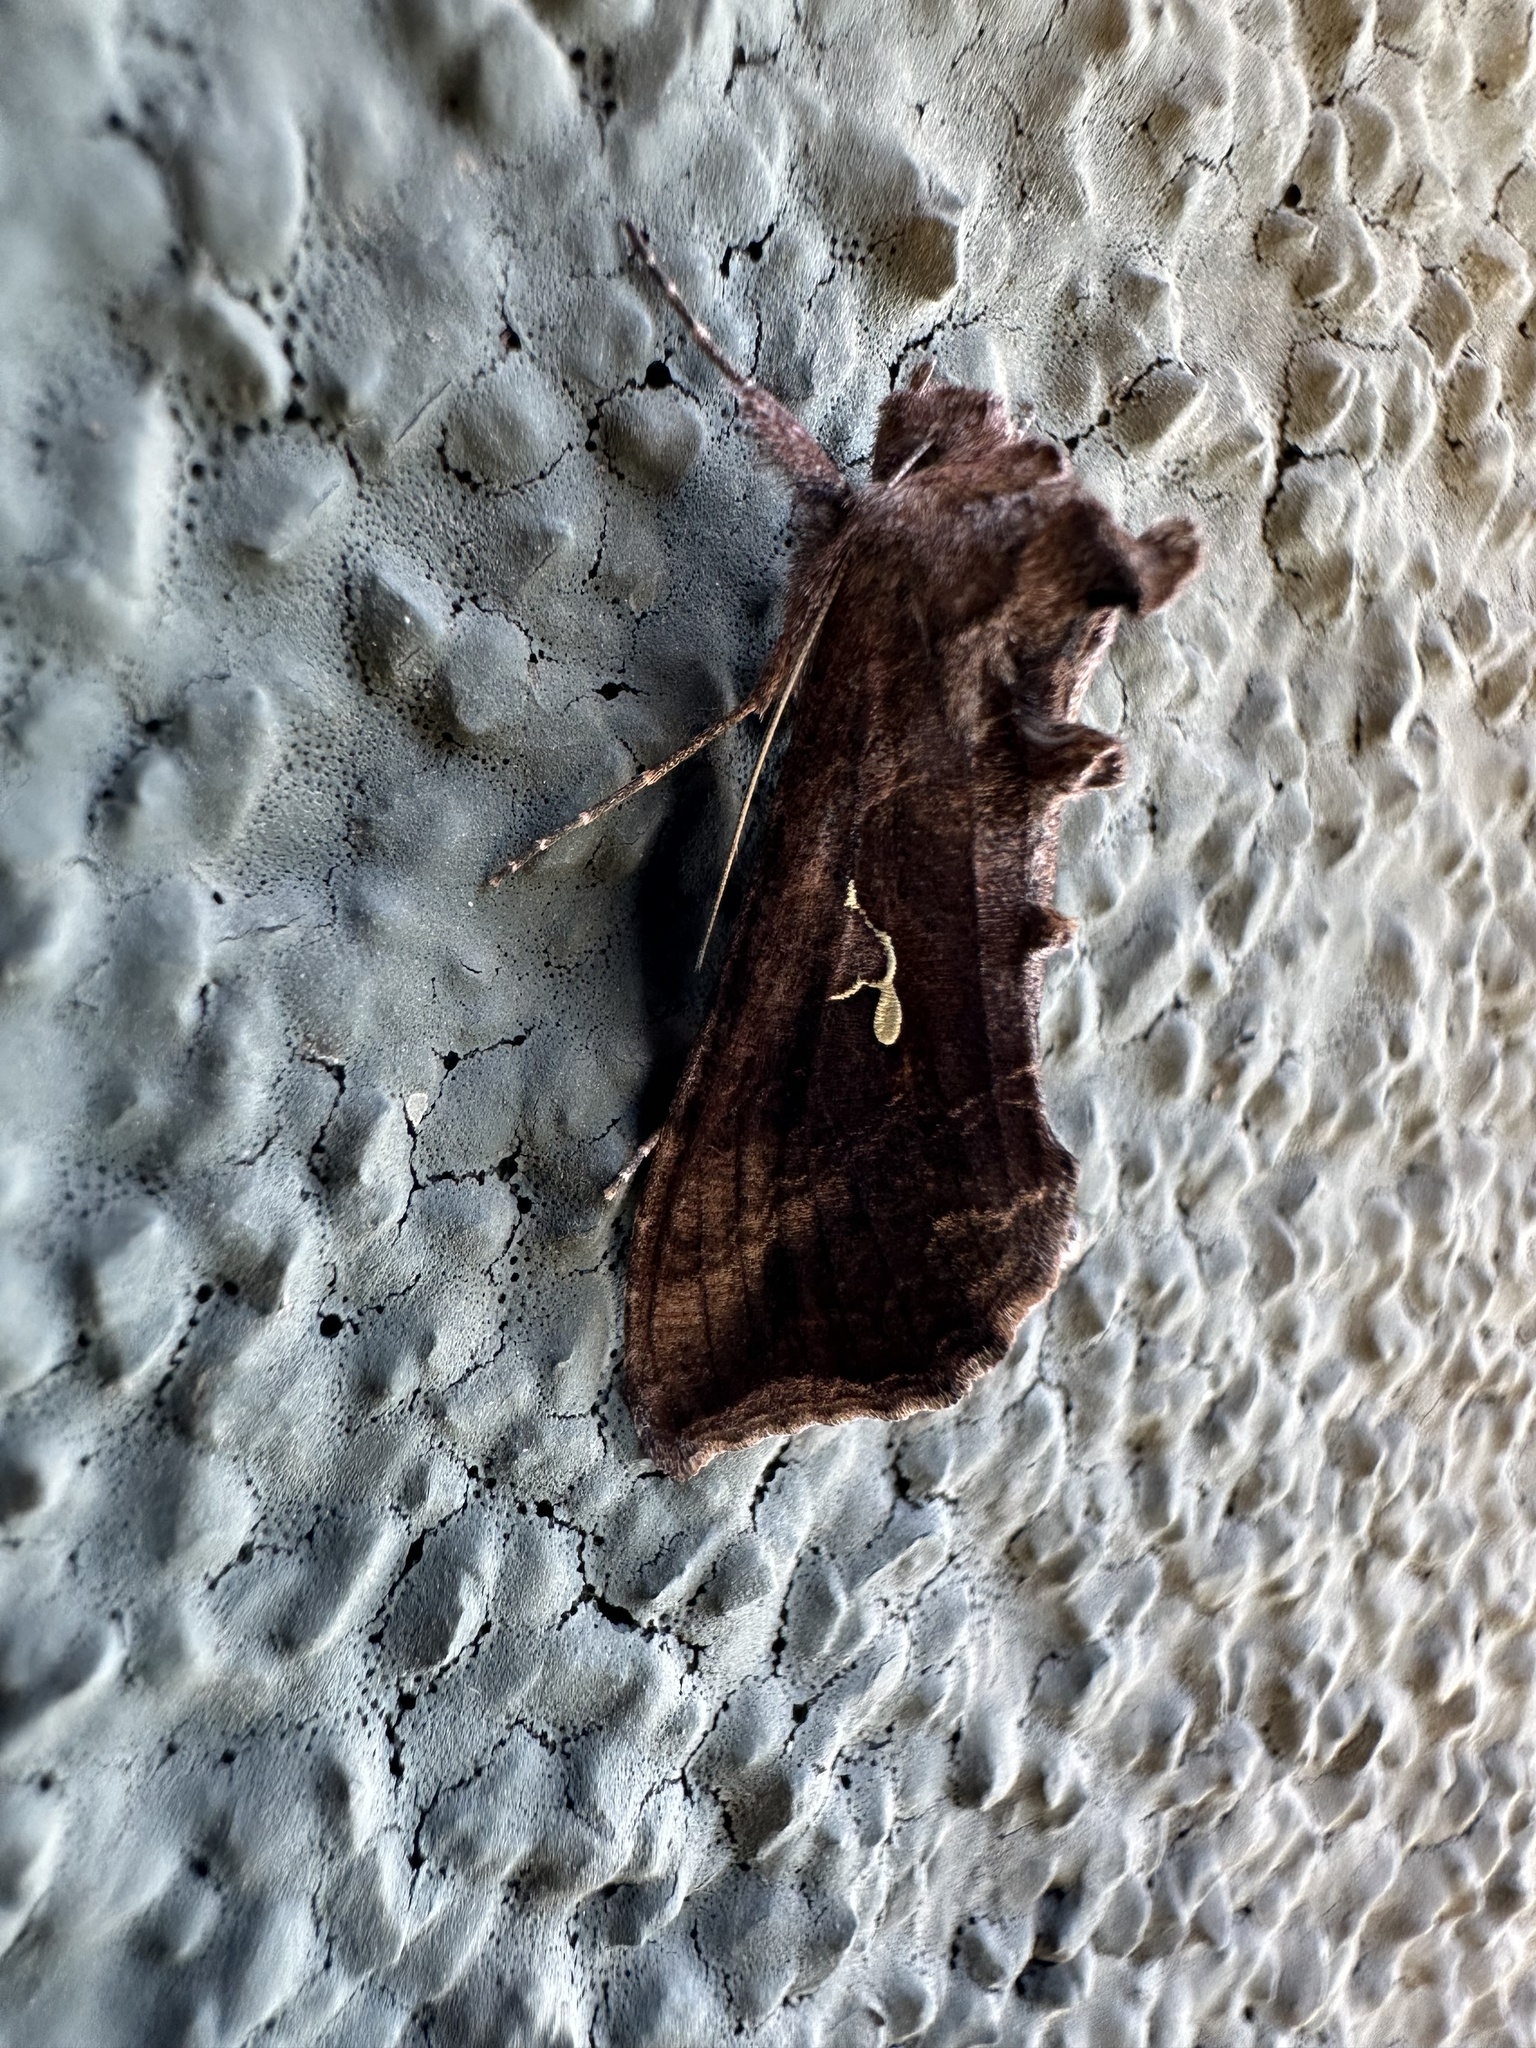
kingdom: Animalia
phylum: Arthropoda
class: Insecta
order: Lepidoptera
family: Noctuidae
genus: Autoplusia
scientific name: Autoplusia gammoides
